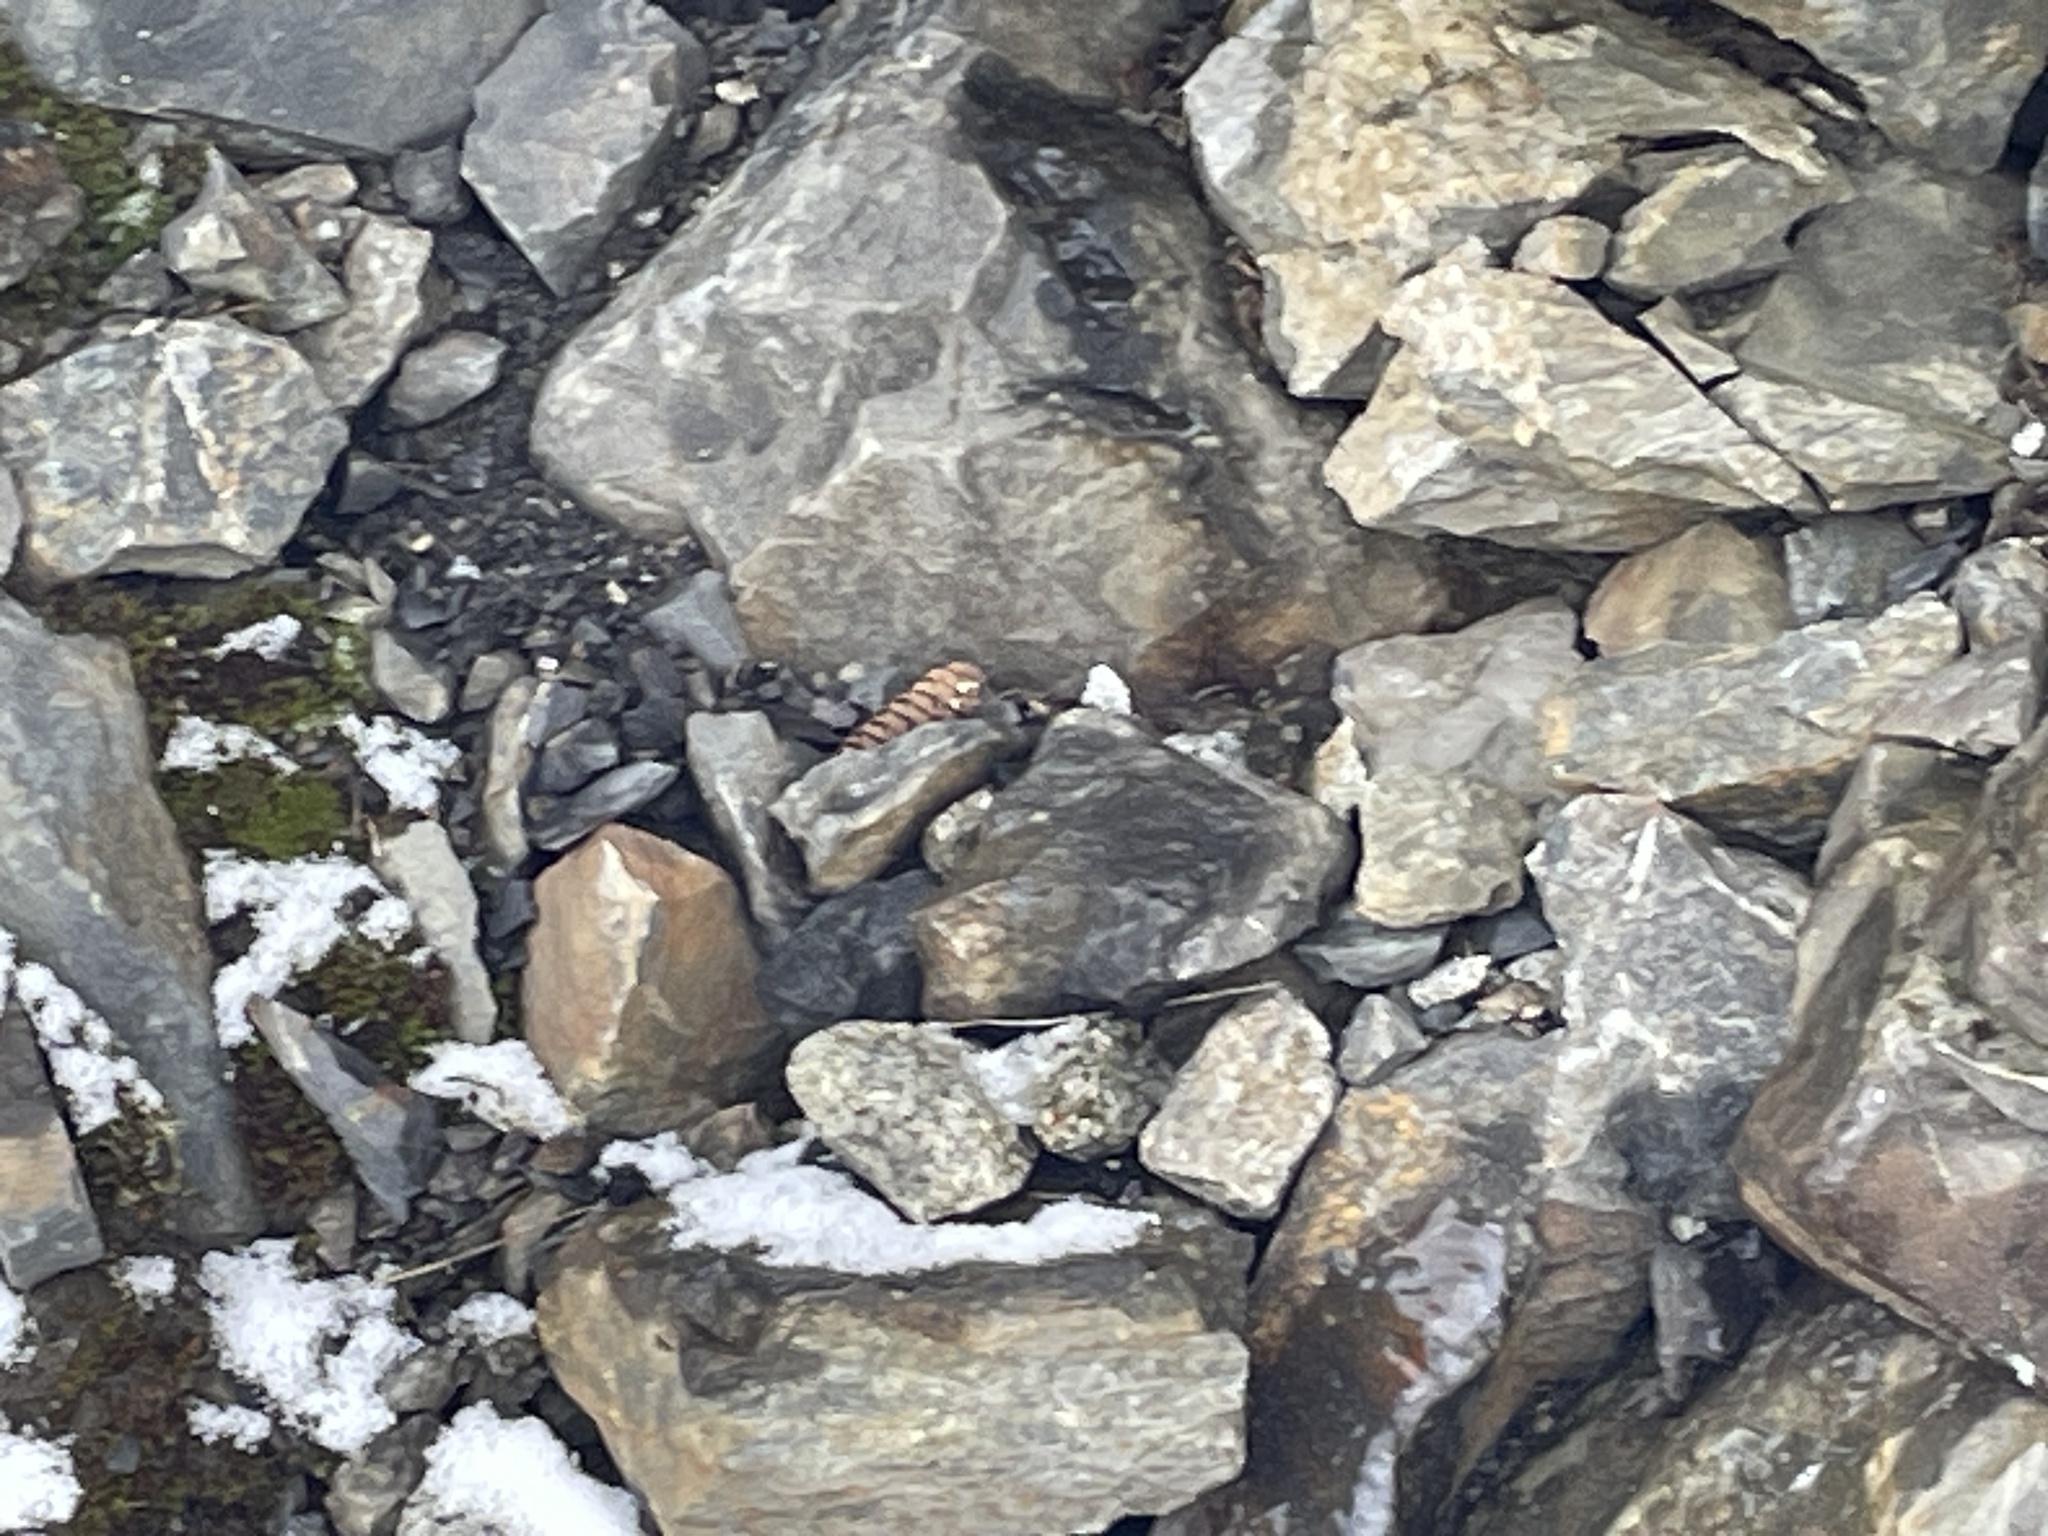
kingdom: Plantae
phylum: Tracheophyta
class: Pinopsida
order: Pinales
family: Pinaceae
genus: Tsuga
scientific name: Tsuga mertensiana
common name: Mountain hemlock
